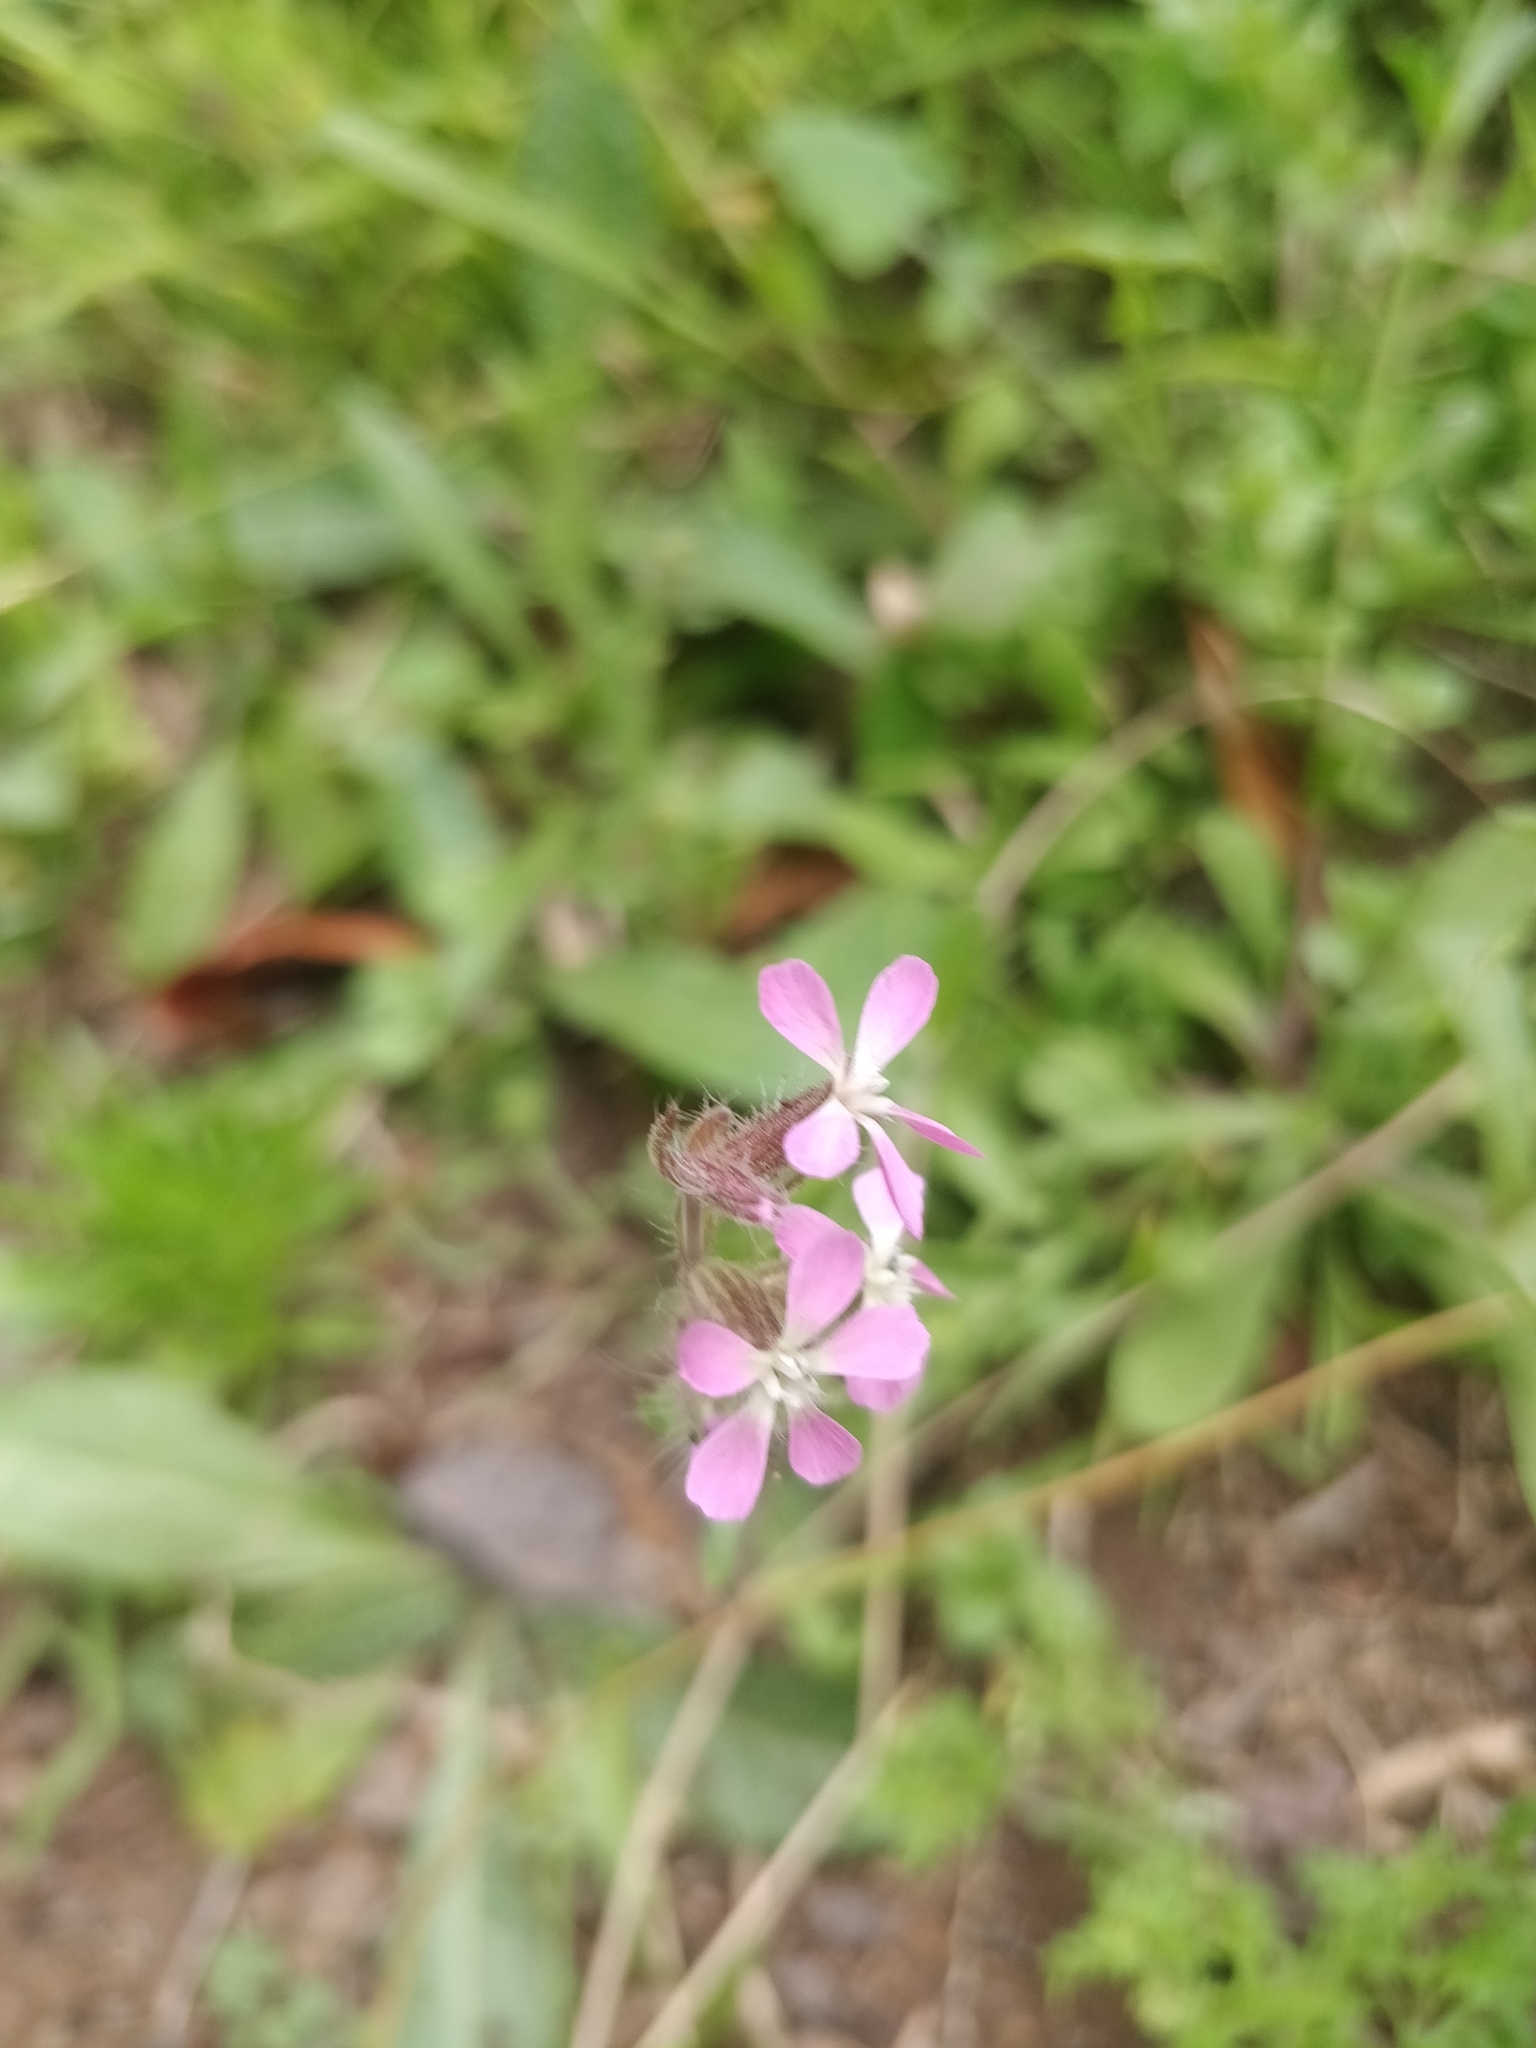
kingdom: Plantae
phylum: Tracheophyta
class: Magnoliopsida
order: Caryophyllales
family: Caryophyllaceae
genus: Silene
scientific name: Silene gallica
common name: Small-flowered catchfly
